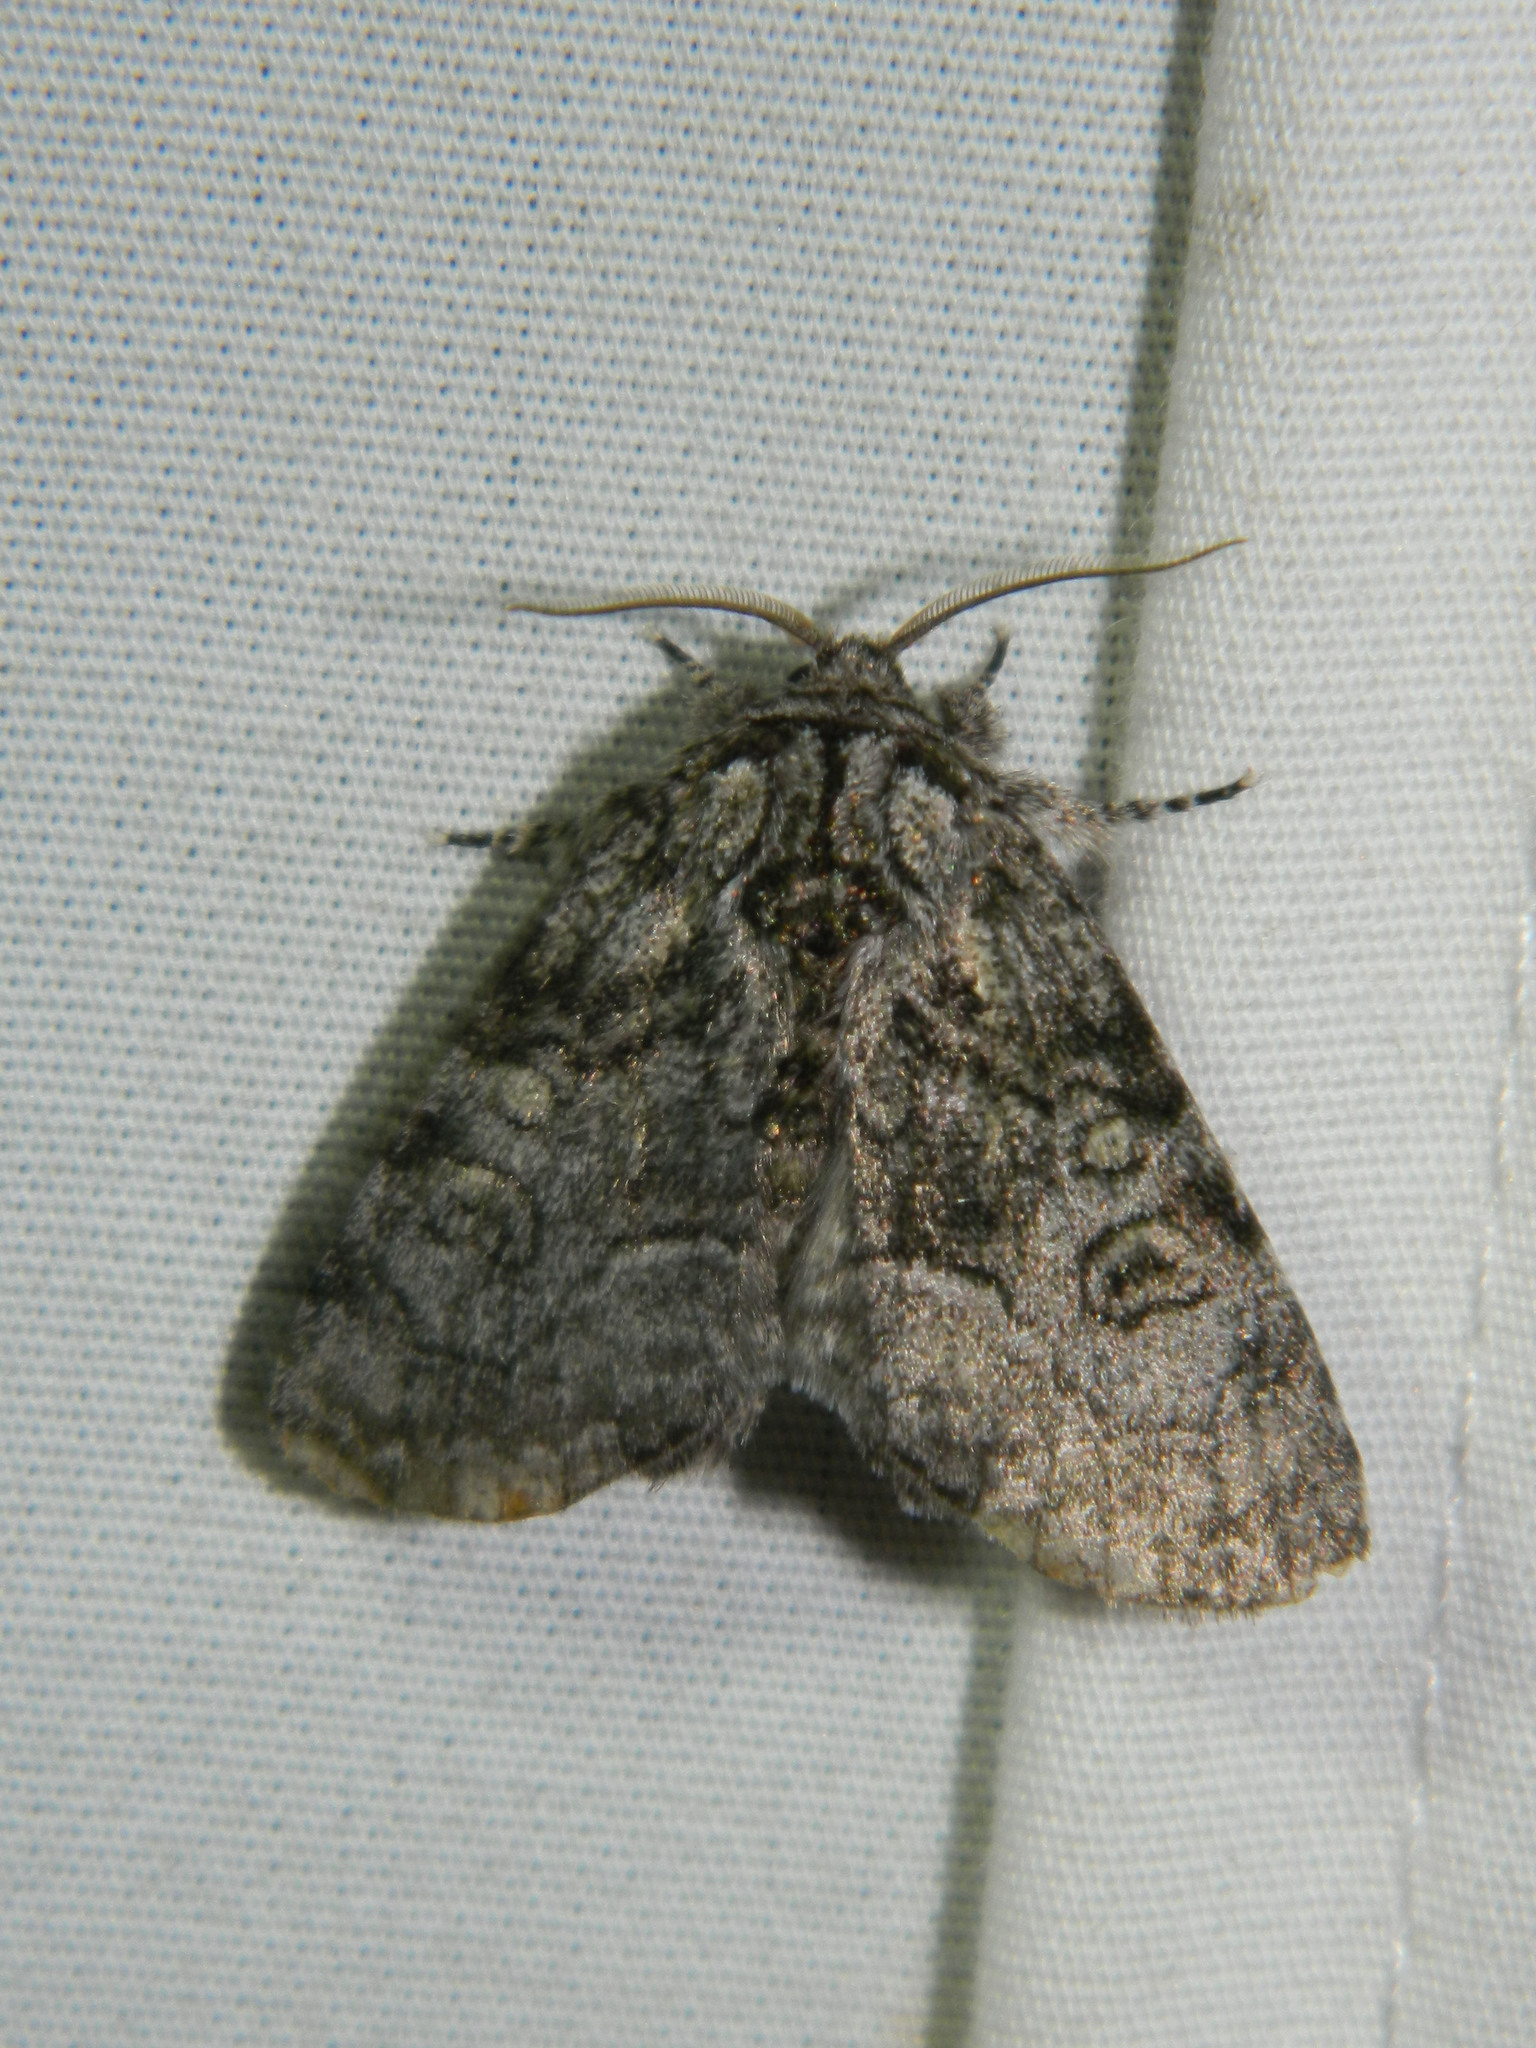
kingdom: Animalia
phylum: Arthropoda
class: Insecta
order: Lepidoptera
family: Noctuidae
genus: Raphia
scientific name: Raphia frater
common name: Brother
